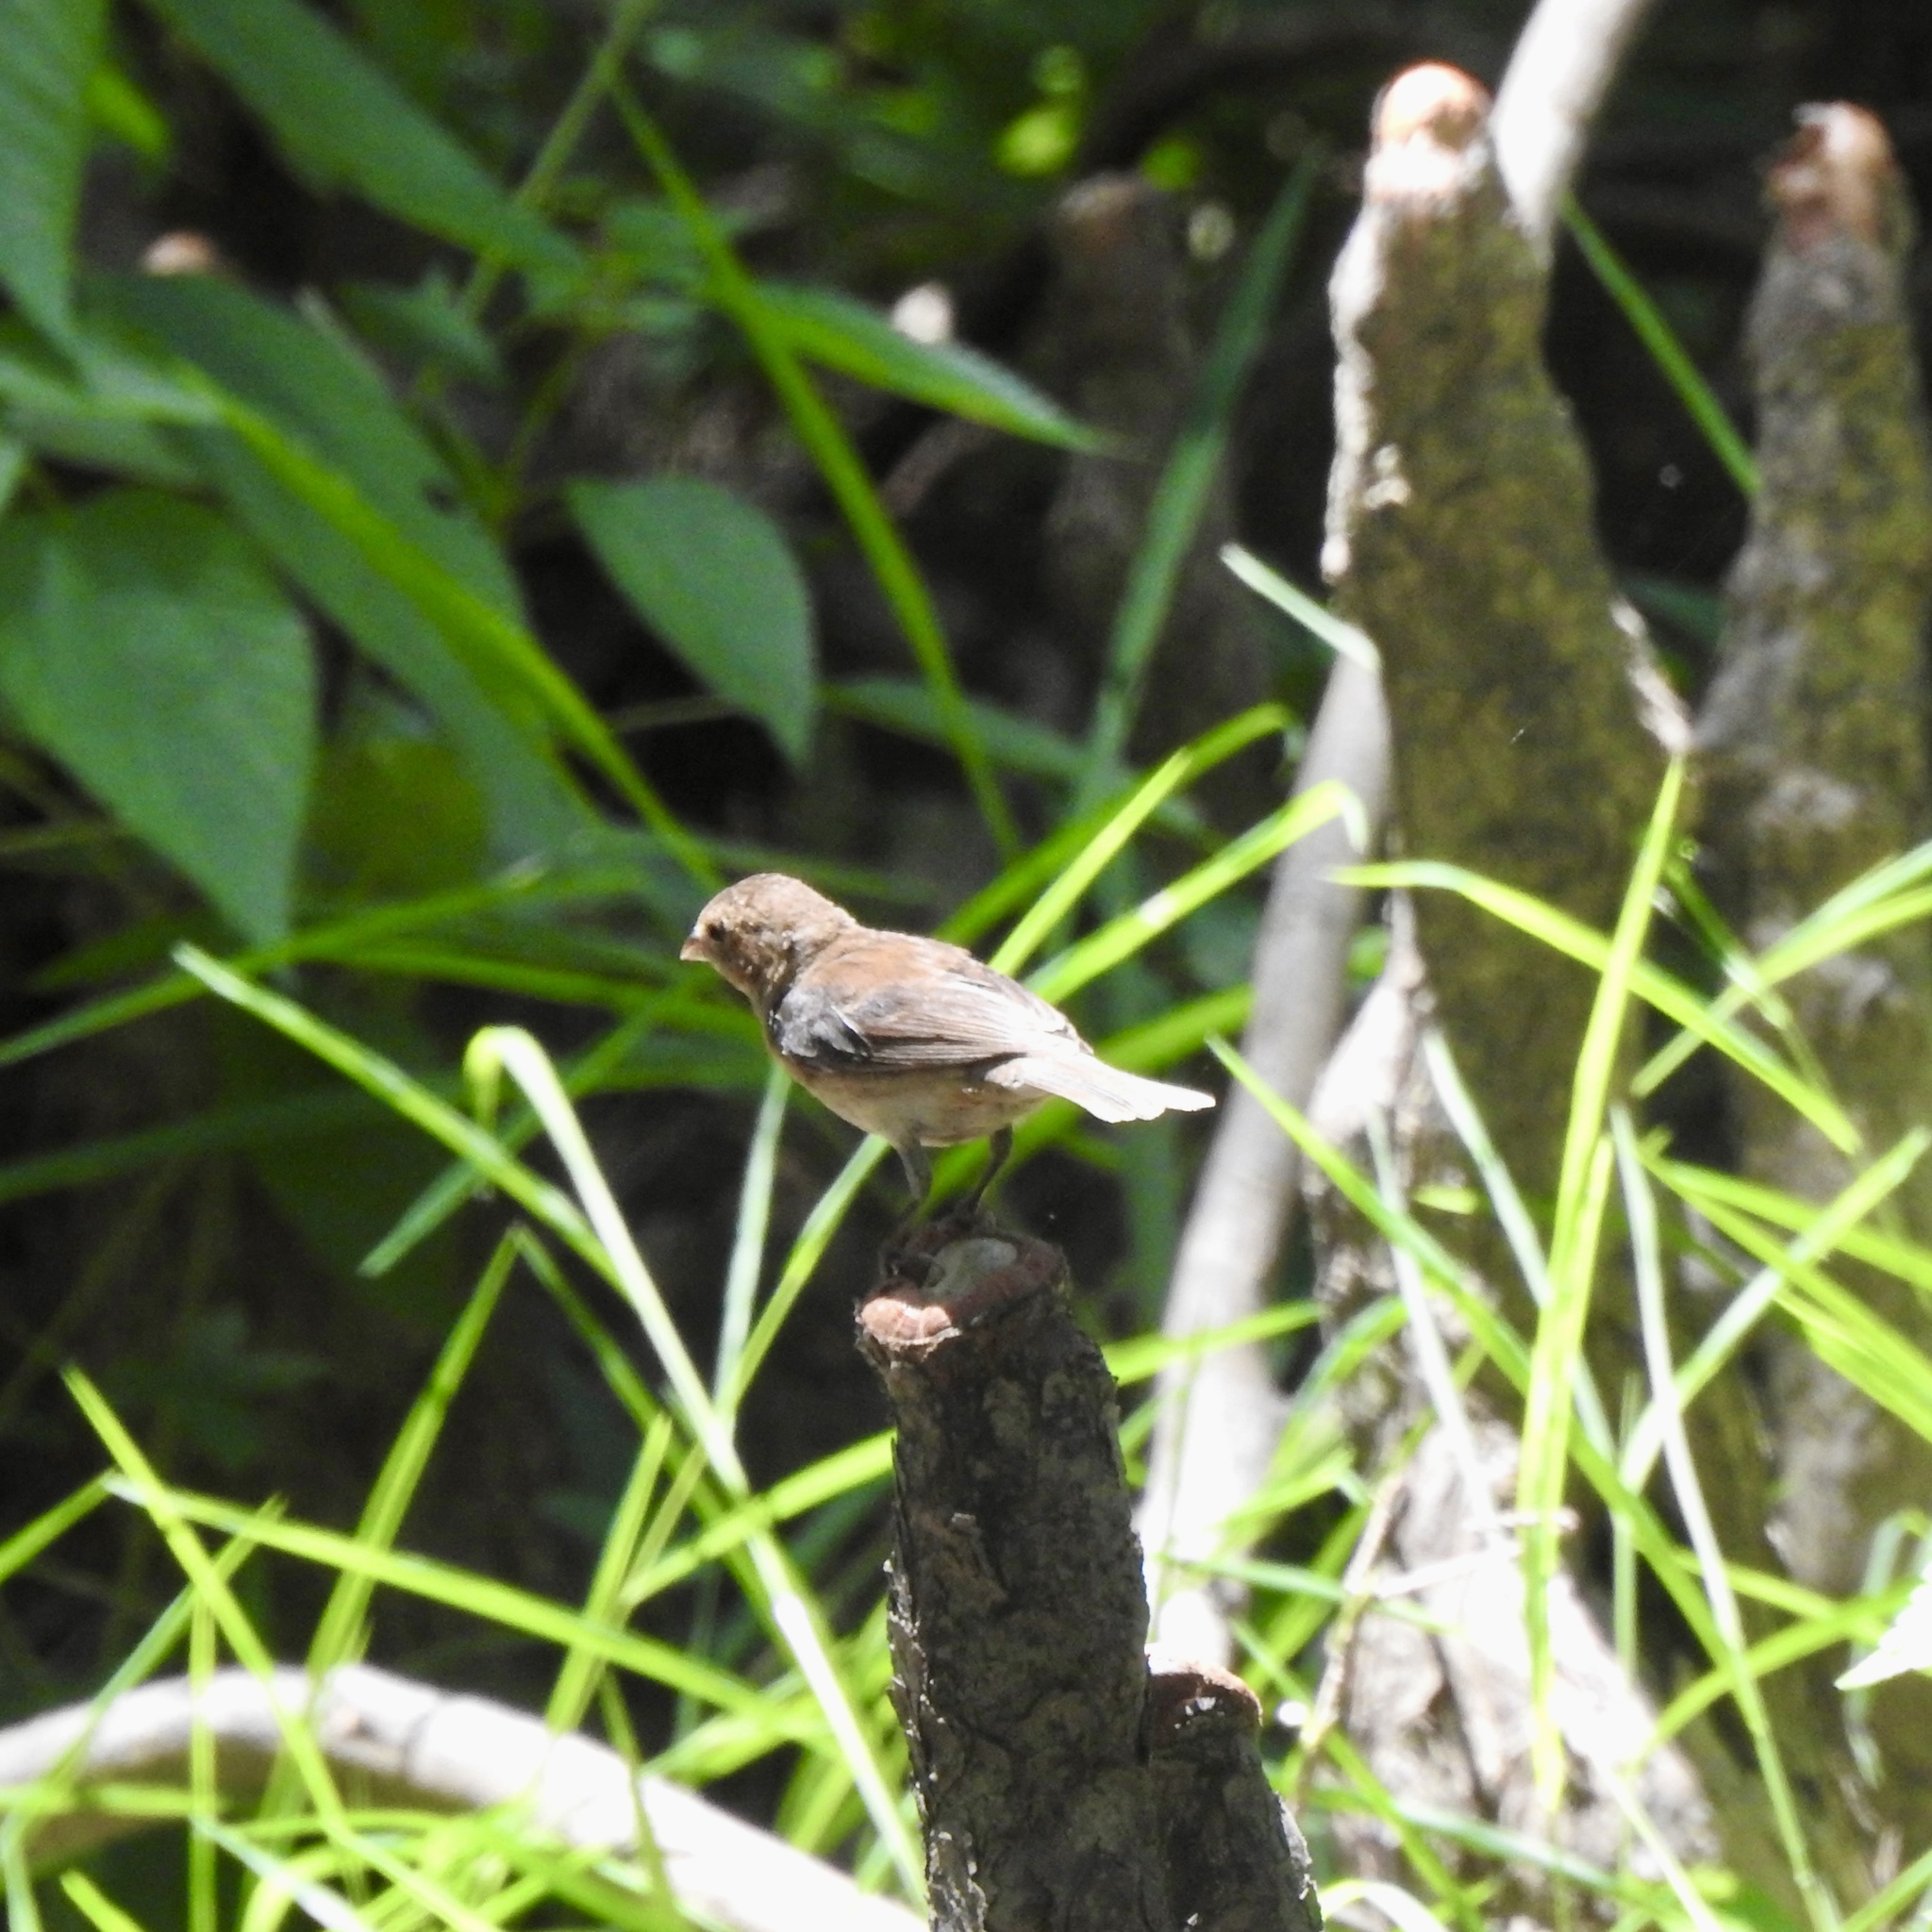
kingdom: Animalia
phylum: Chordata
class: Aves
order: Passeriformes
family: Cardinalidae
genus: Passerina
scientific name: Passerina cyanea
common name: Indigo bunting
